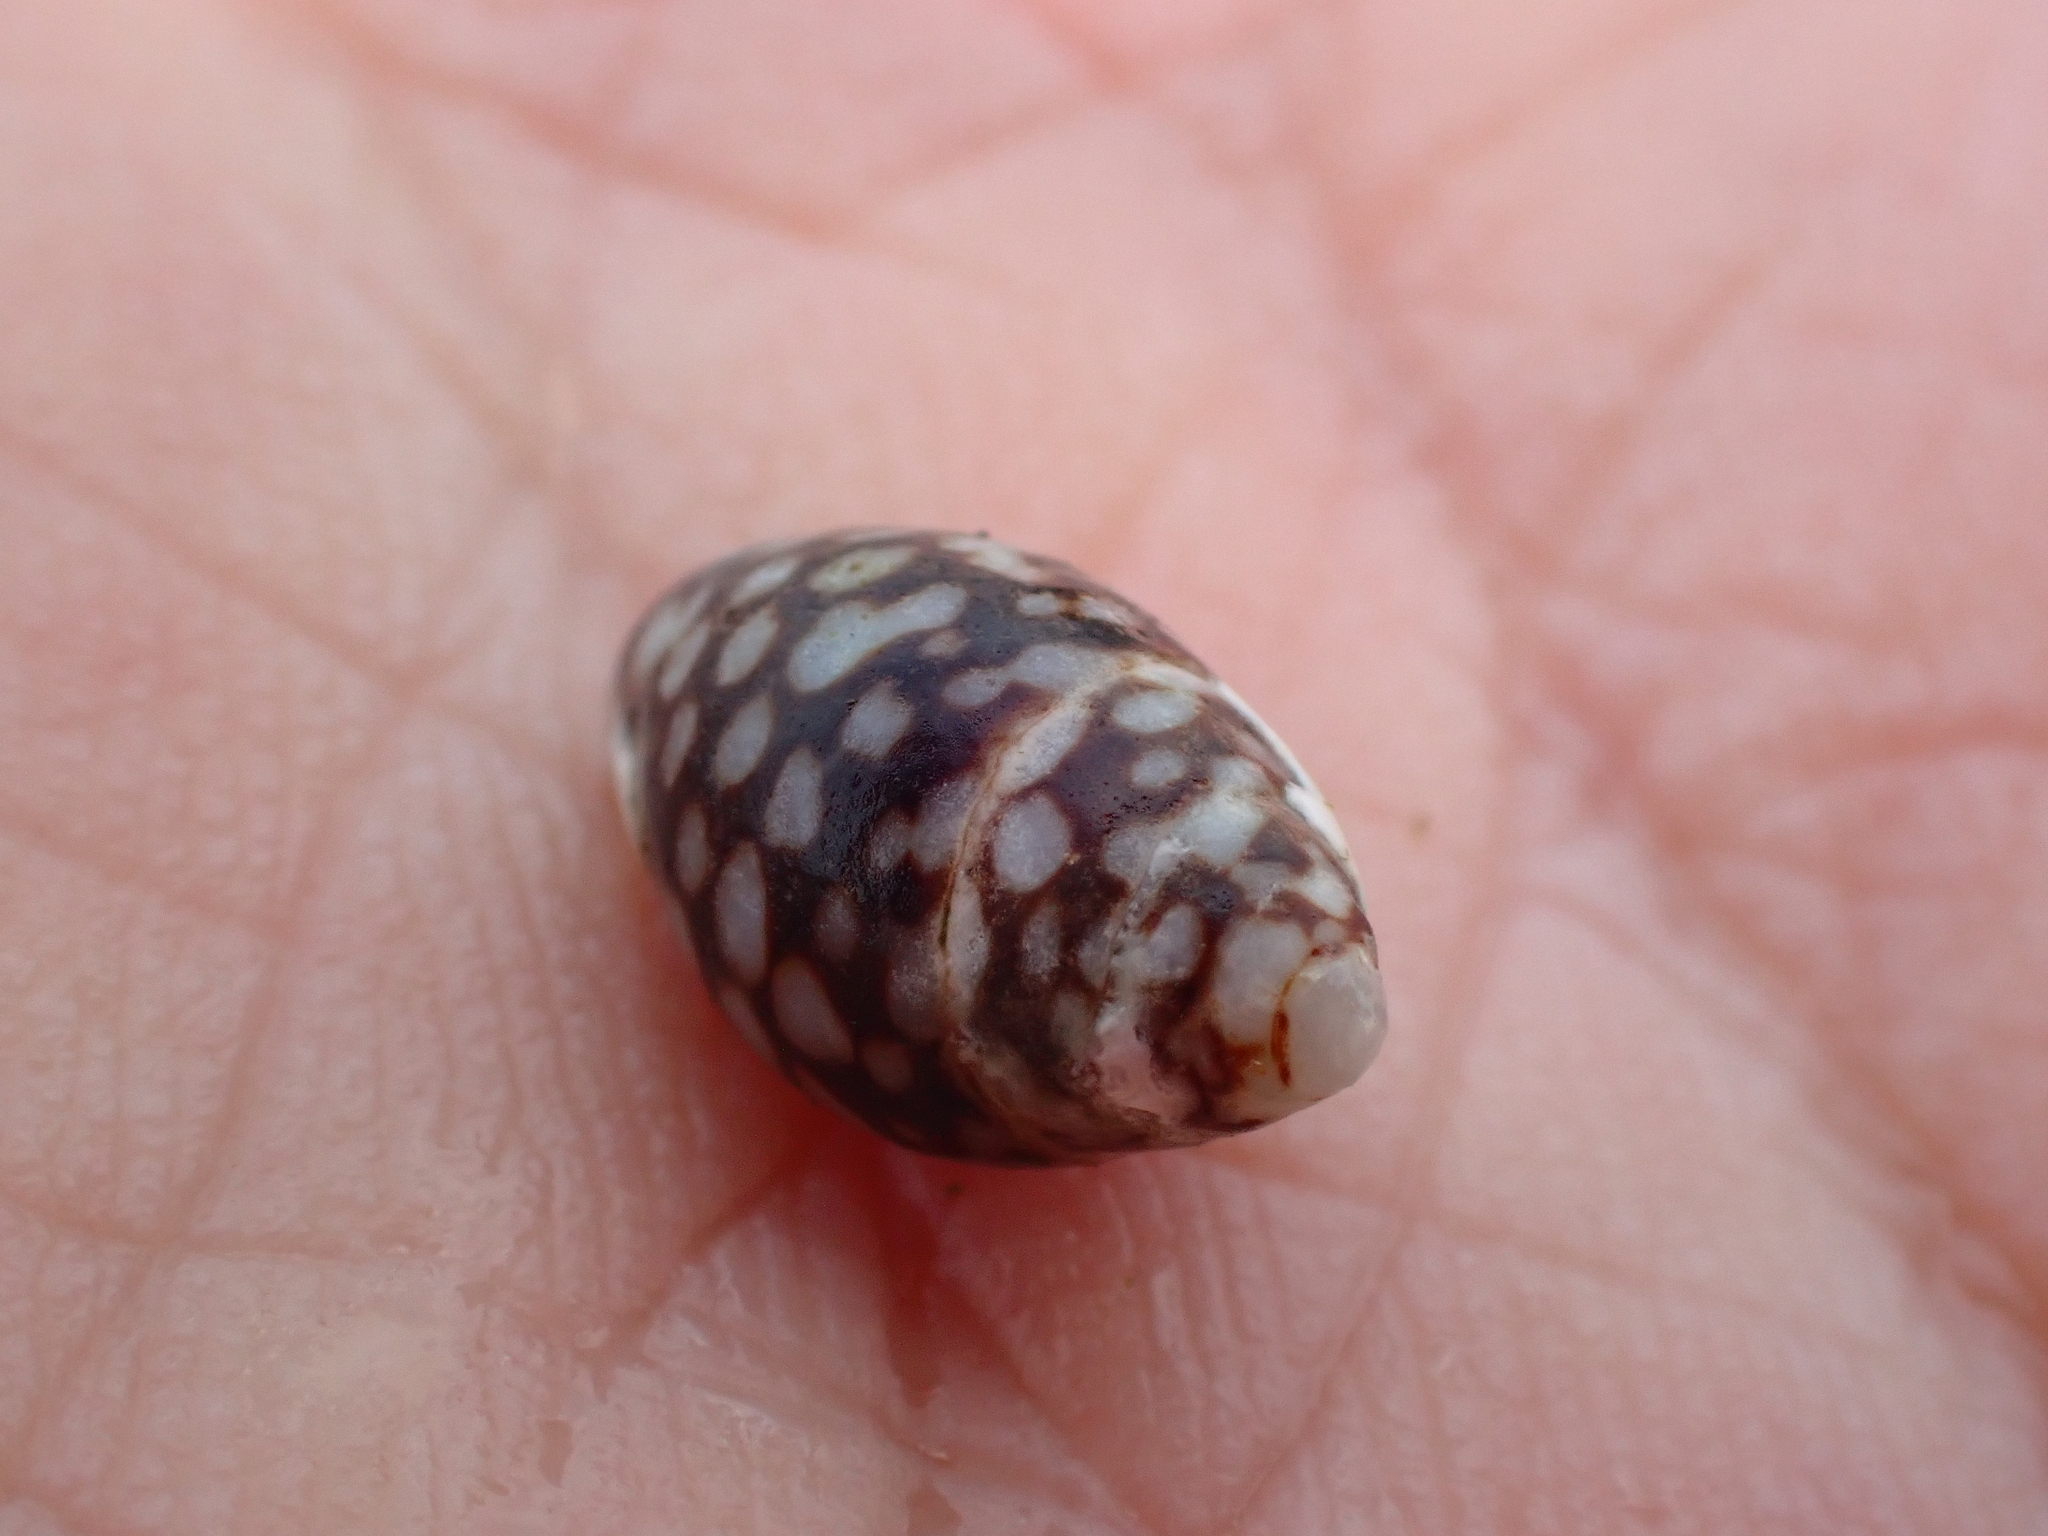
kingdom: Animalia
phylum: Mollusca
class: Gastropoda
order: Neogastropoda
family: Columbellidae
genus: Pardalinops de
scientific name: Pardalinops de Pardalinops testudinaria
